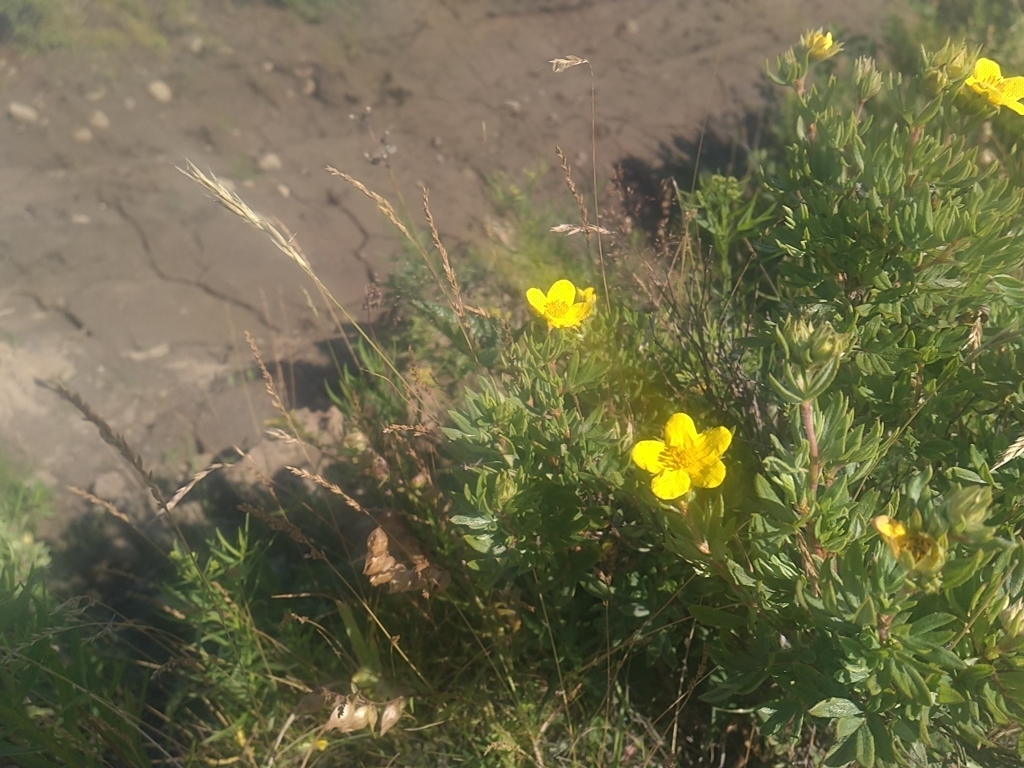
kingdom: Plantae
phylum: Tracheophyta
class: Magnoliopsida
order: Rosales
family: Rosaceae
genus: Dasiphora
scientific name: Dasiphora fruticosa
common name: Shrubby cinquefoil
